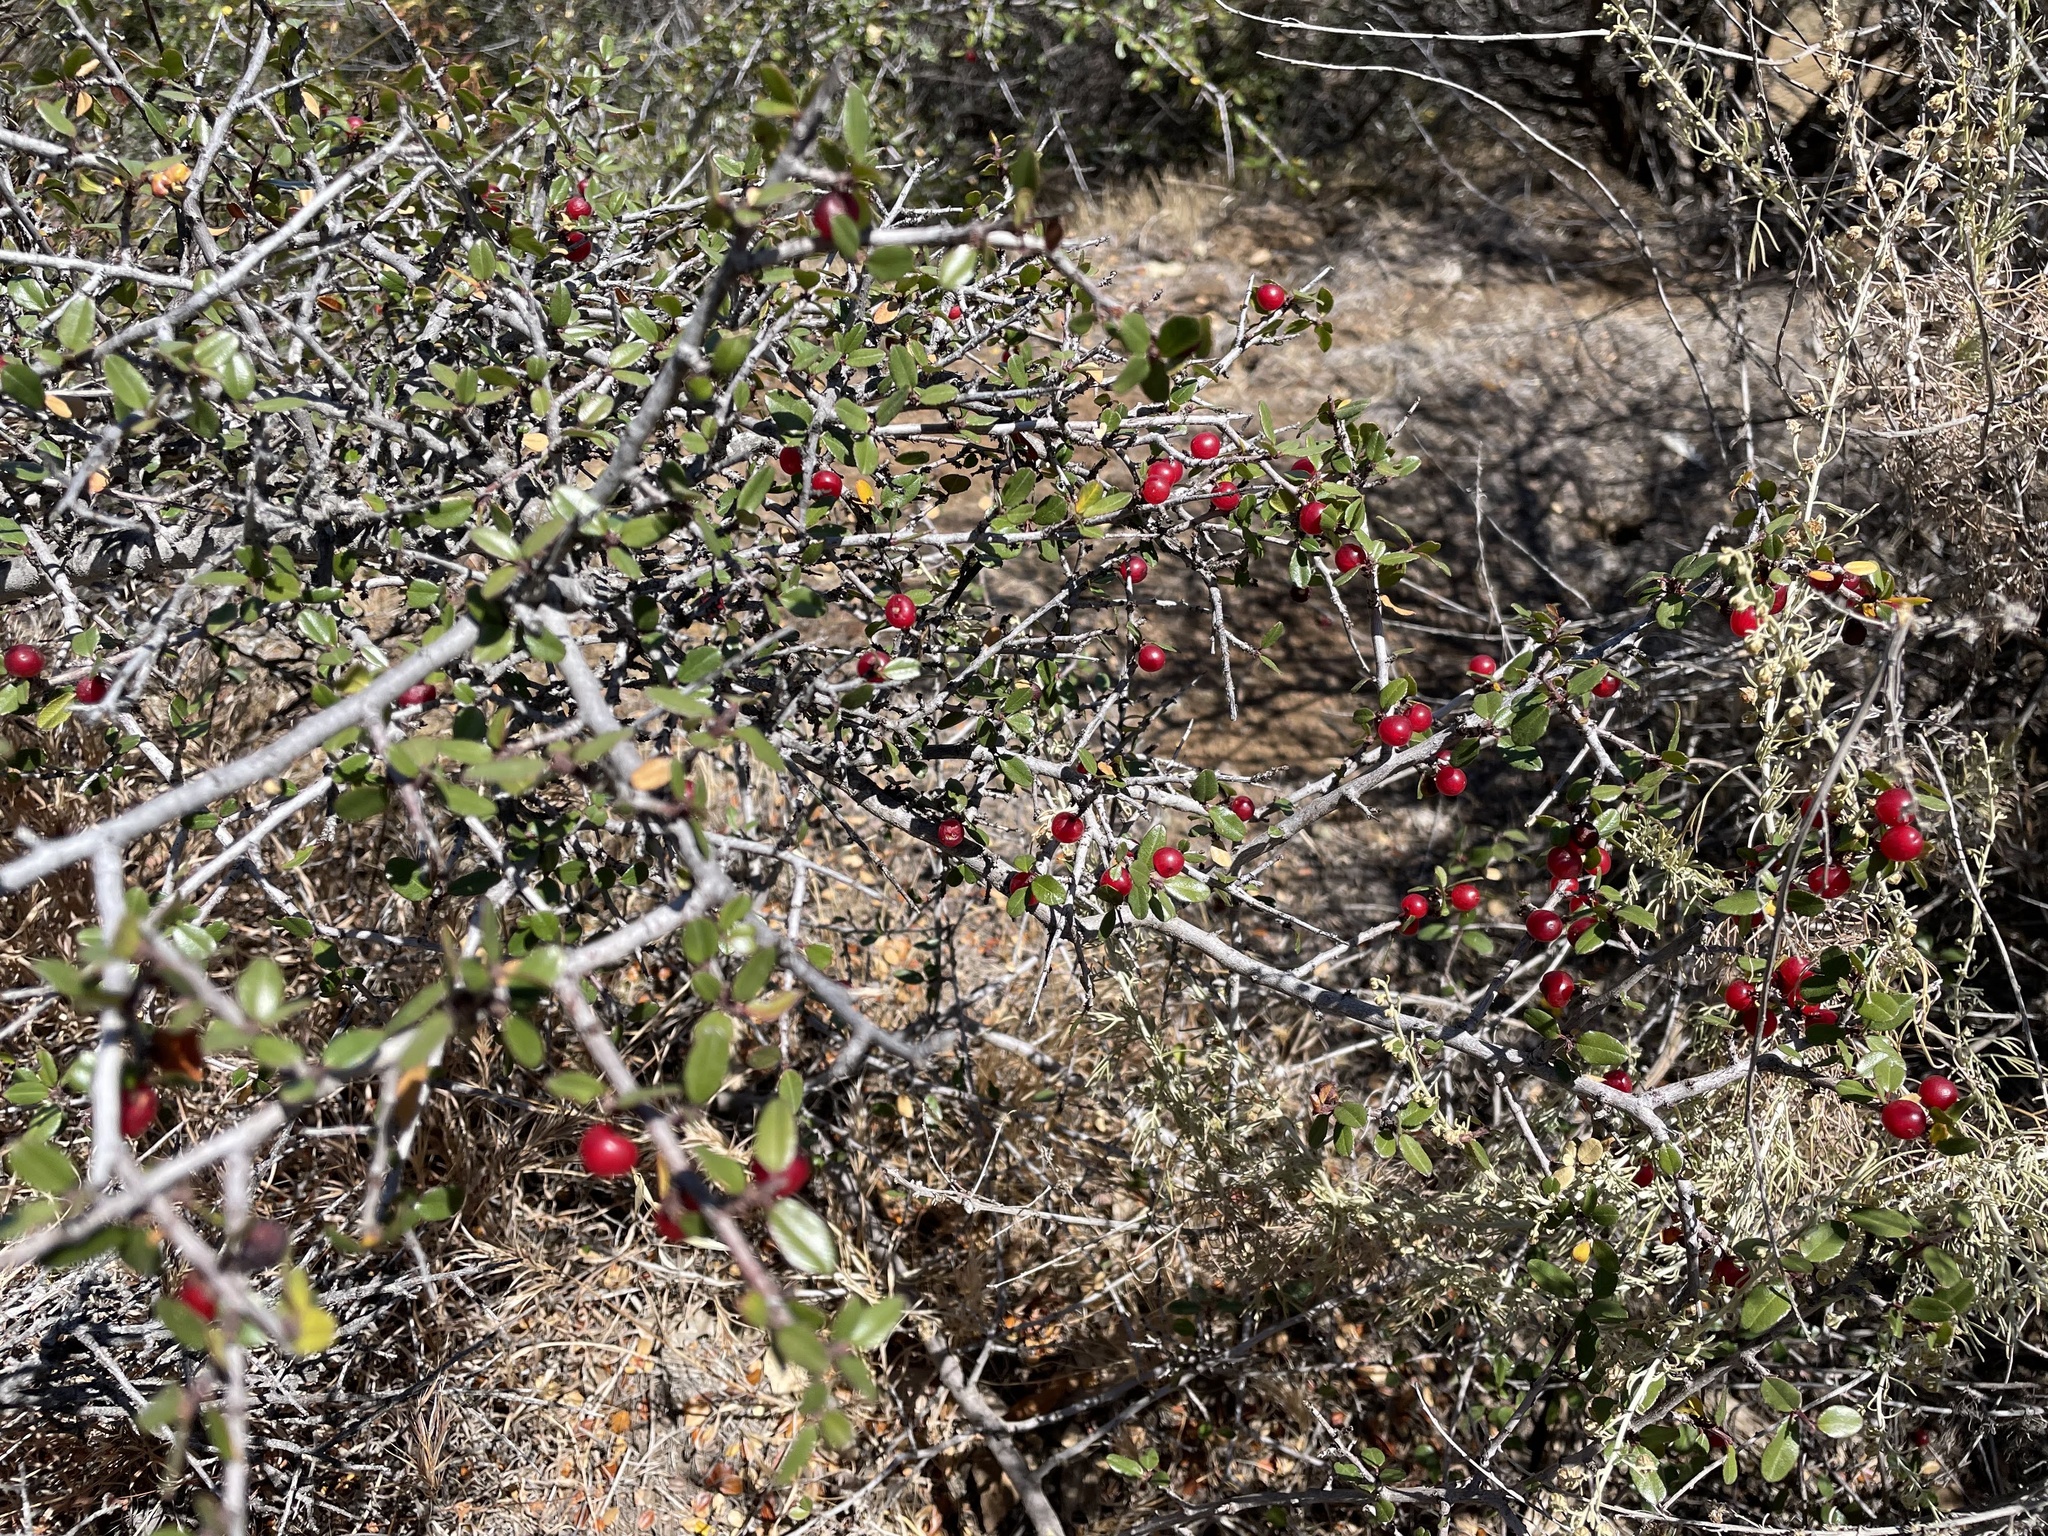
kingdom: Plantae
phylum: Tracheophyta
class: Magnoliopsida
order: Rosales
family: Rhamnaceae
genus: Endotropis
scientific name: Endotropis crocea
